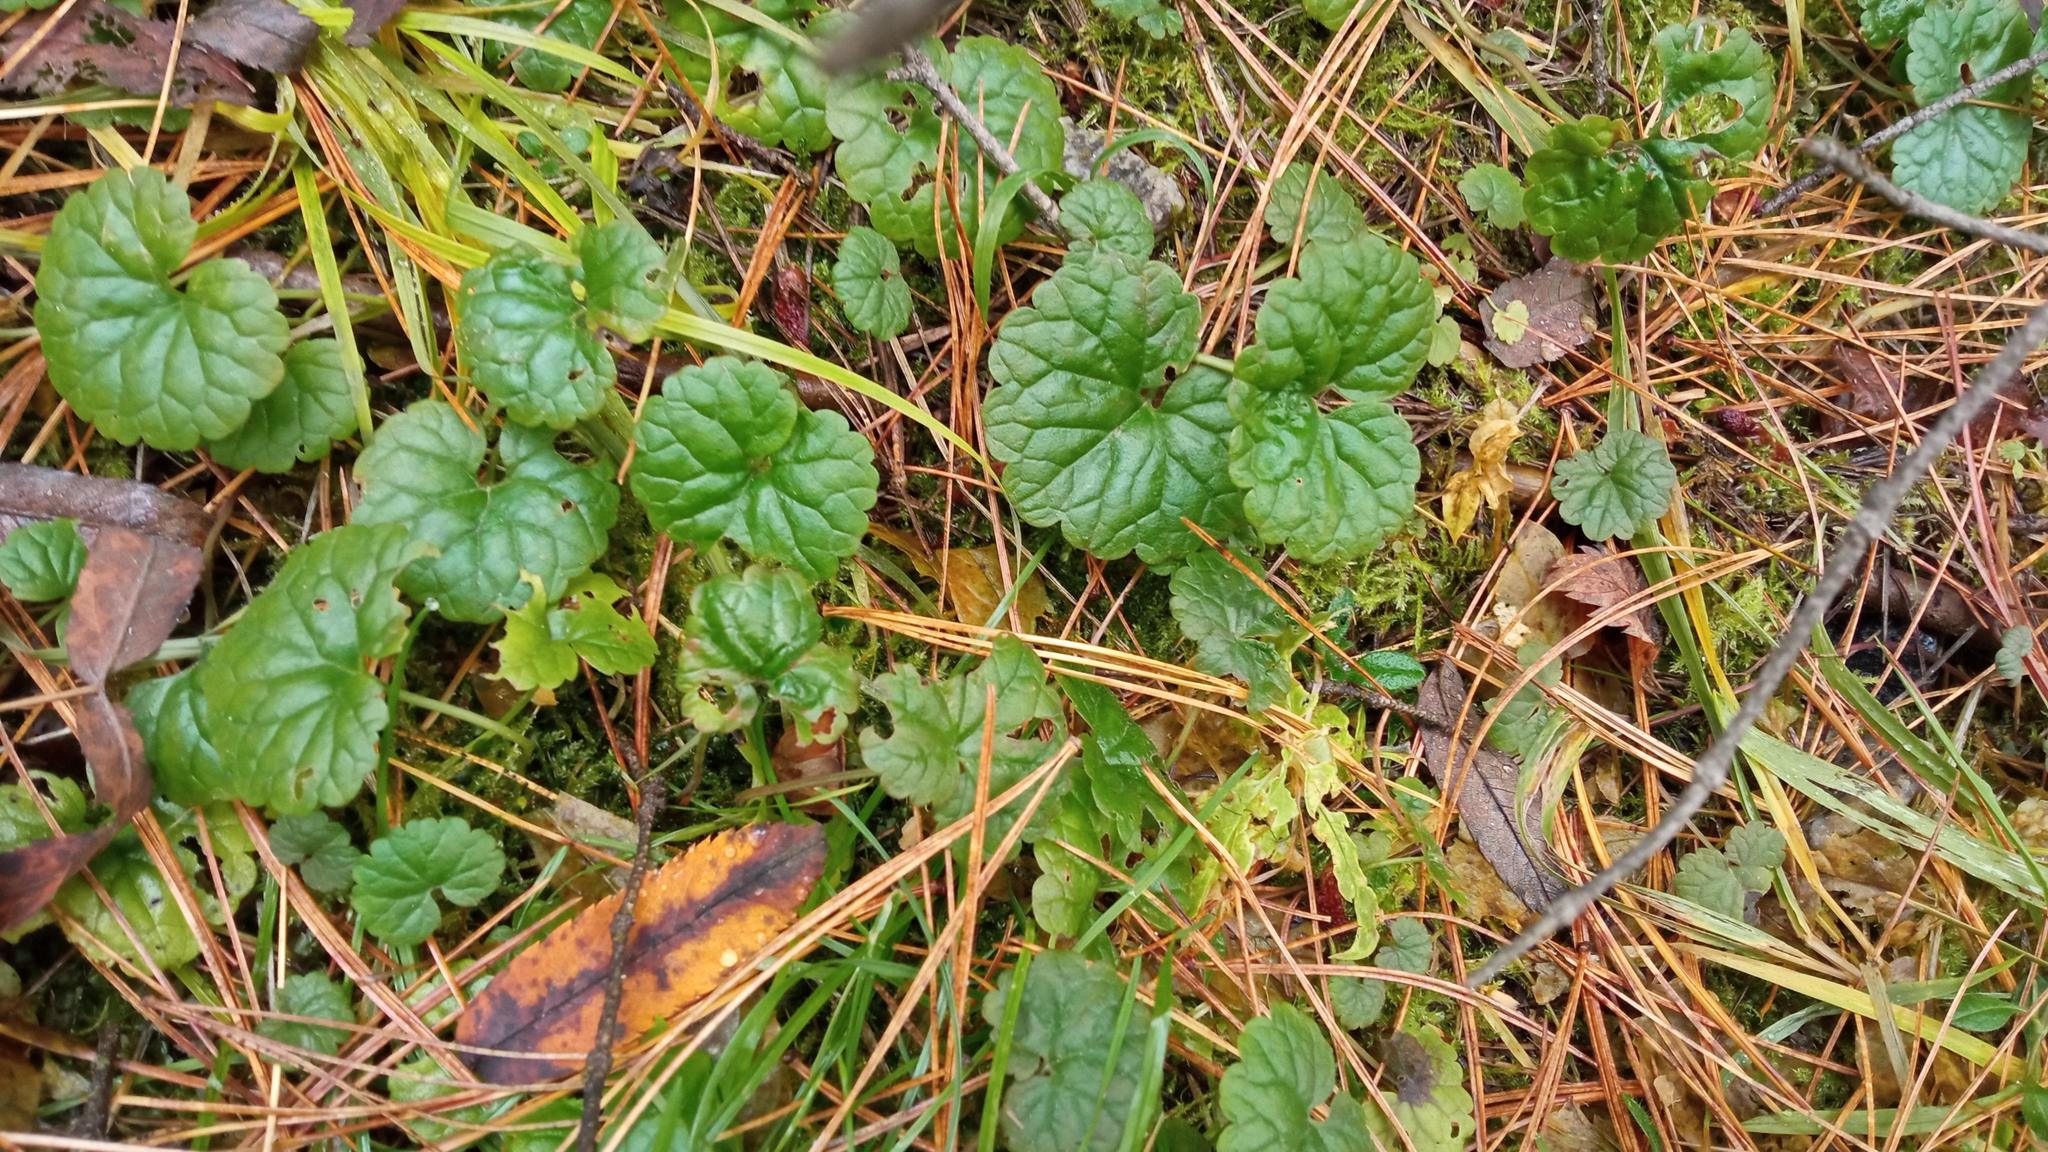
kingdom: Plantae
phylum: Tracheophyta
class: Magnoliopsida
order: Lamiales
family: Lamiaceae
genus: Glechoma
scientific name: Glechoma hederacea
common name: Ground ivy
